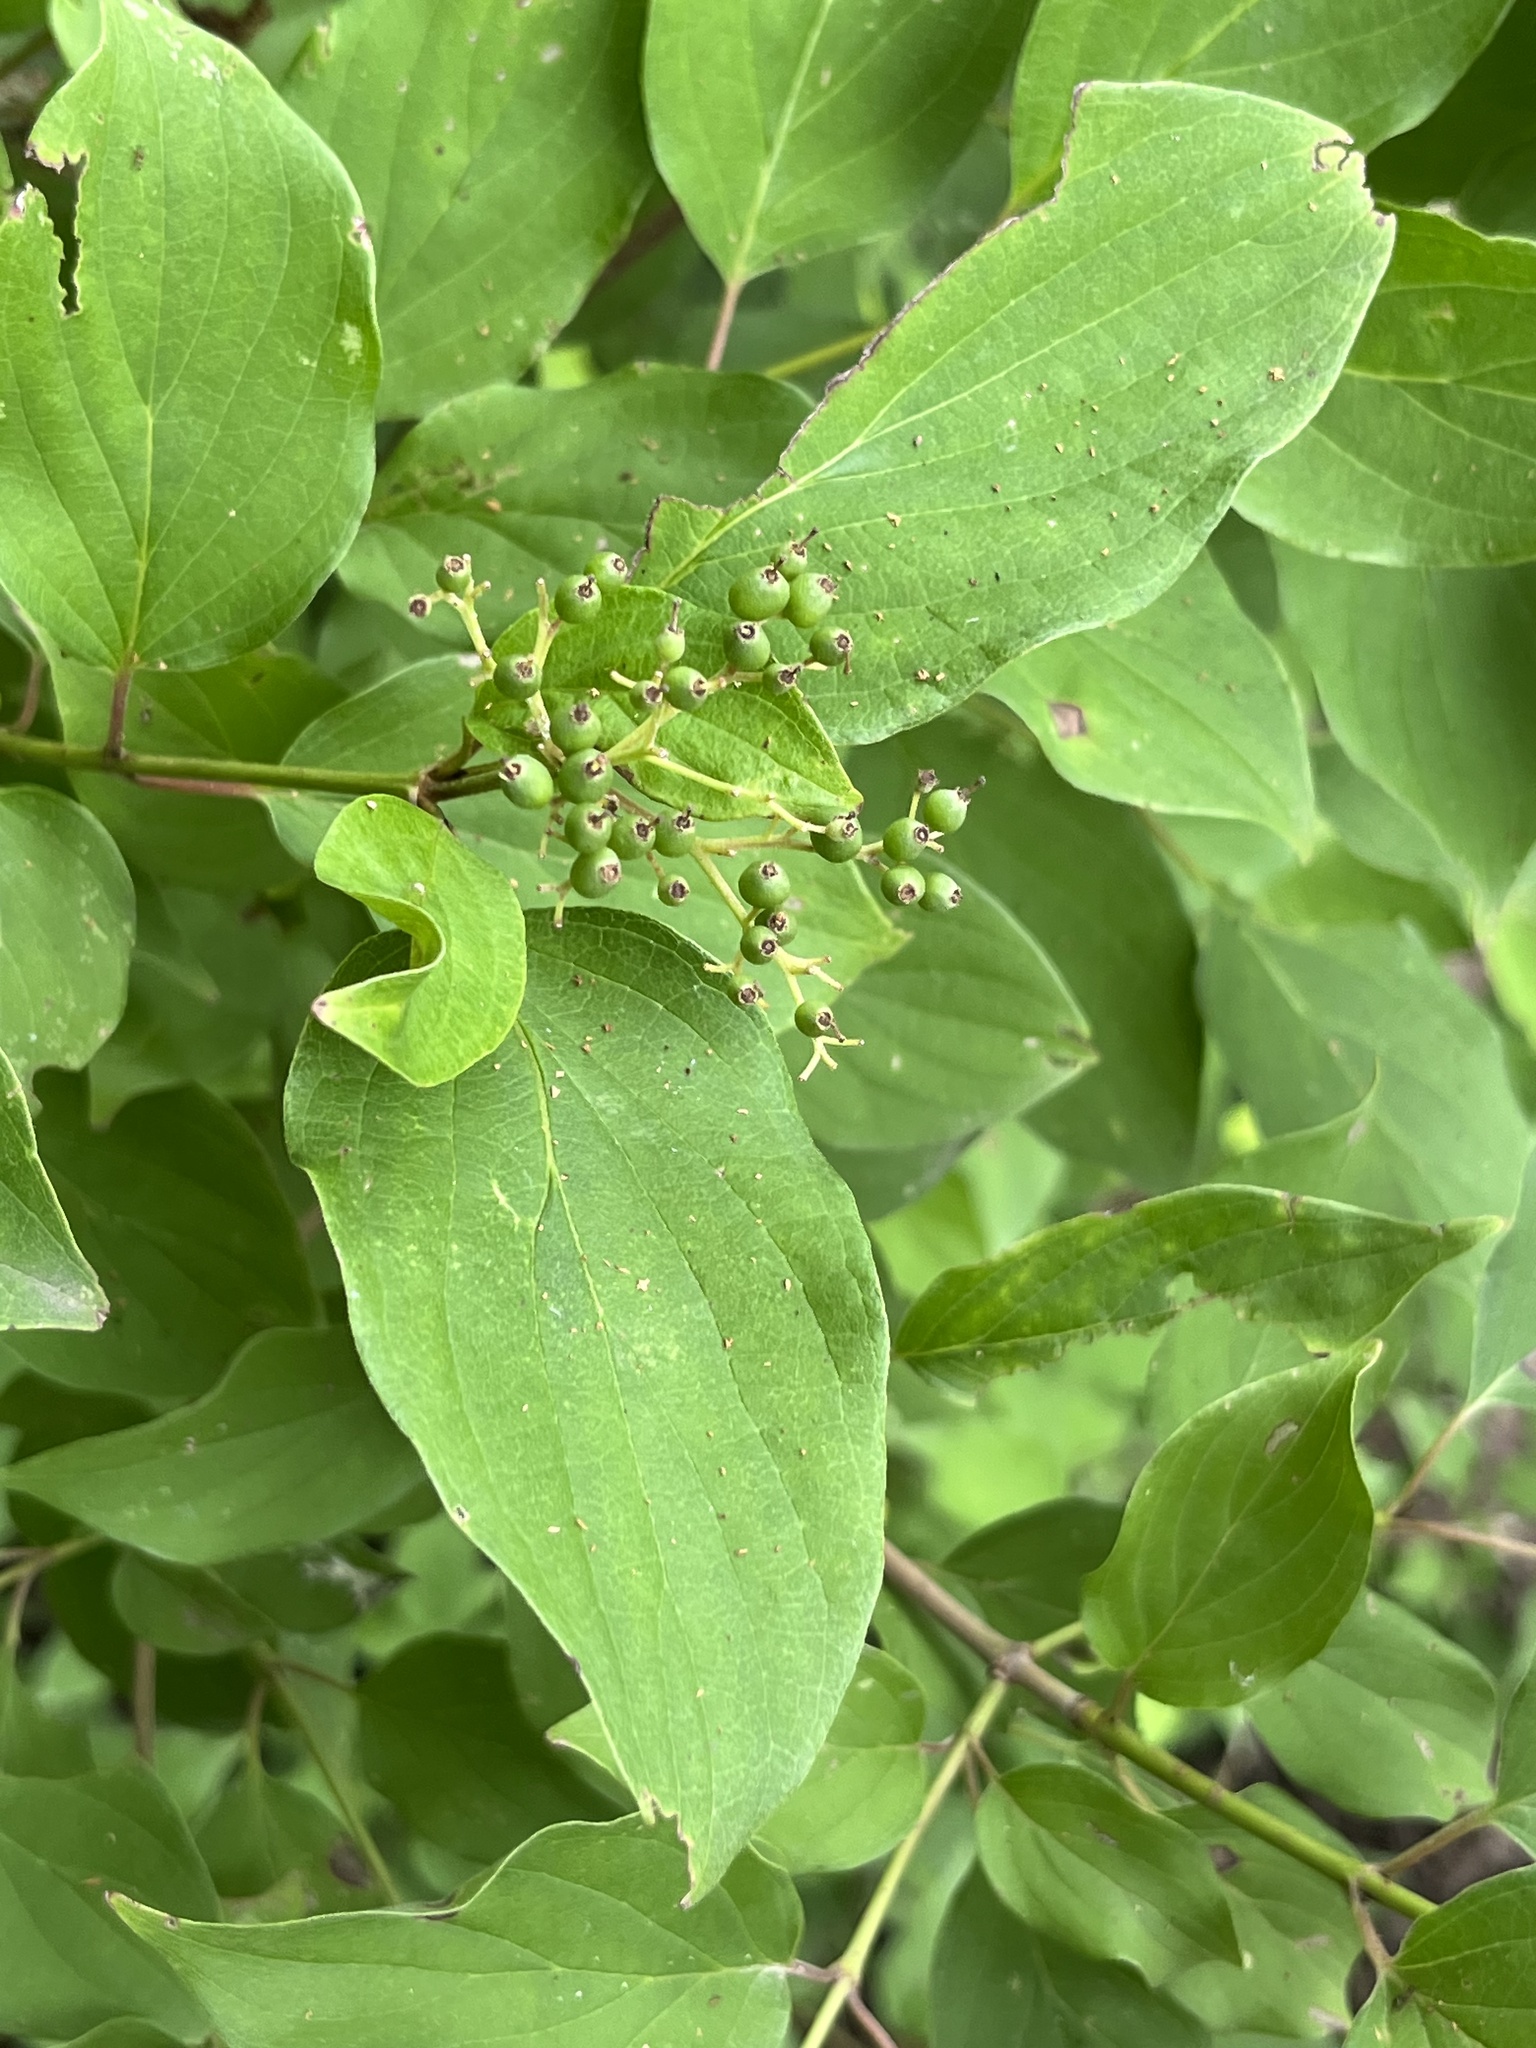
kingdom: Plantae
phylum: Tracheophyta
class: Magnoliopsida
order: Cornales
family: Cornaceae
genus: Cornus
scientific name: Cornus drummondii
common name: Rough-leaf dogwood
